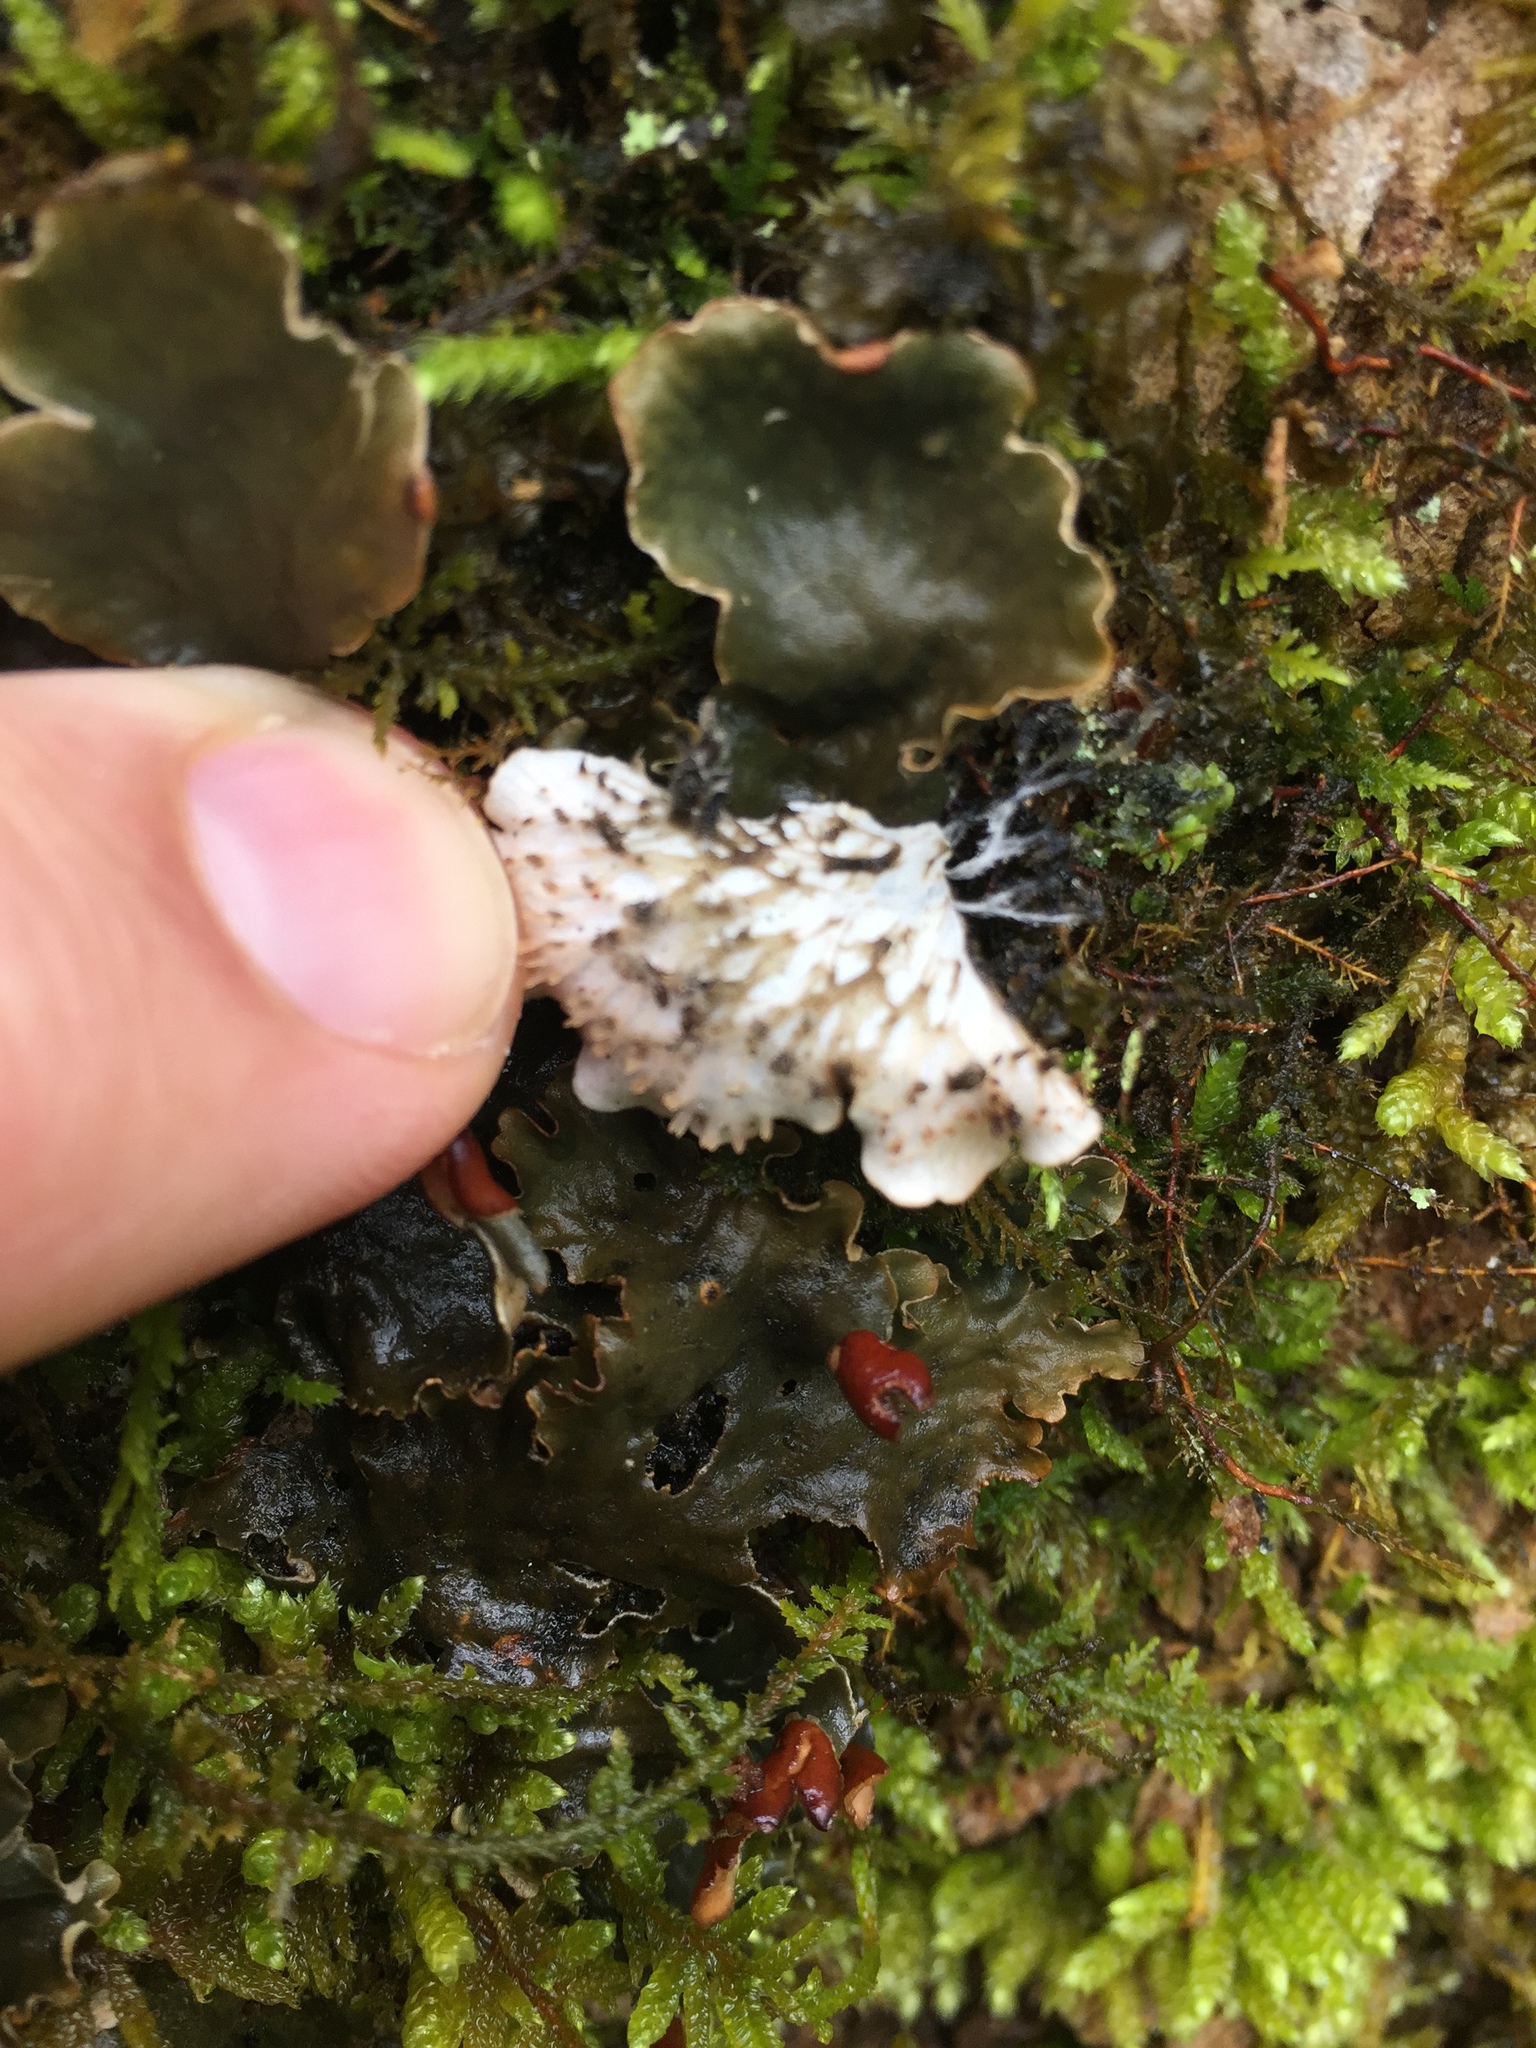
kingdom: Fungi
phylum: Ascomycota
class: Lecanoromycetes
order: Peltigerales
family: Peltigeraceae
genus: Peltigera
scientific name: Peltigera canina
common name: Dog pelt lichen
